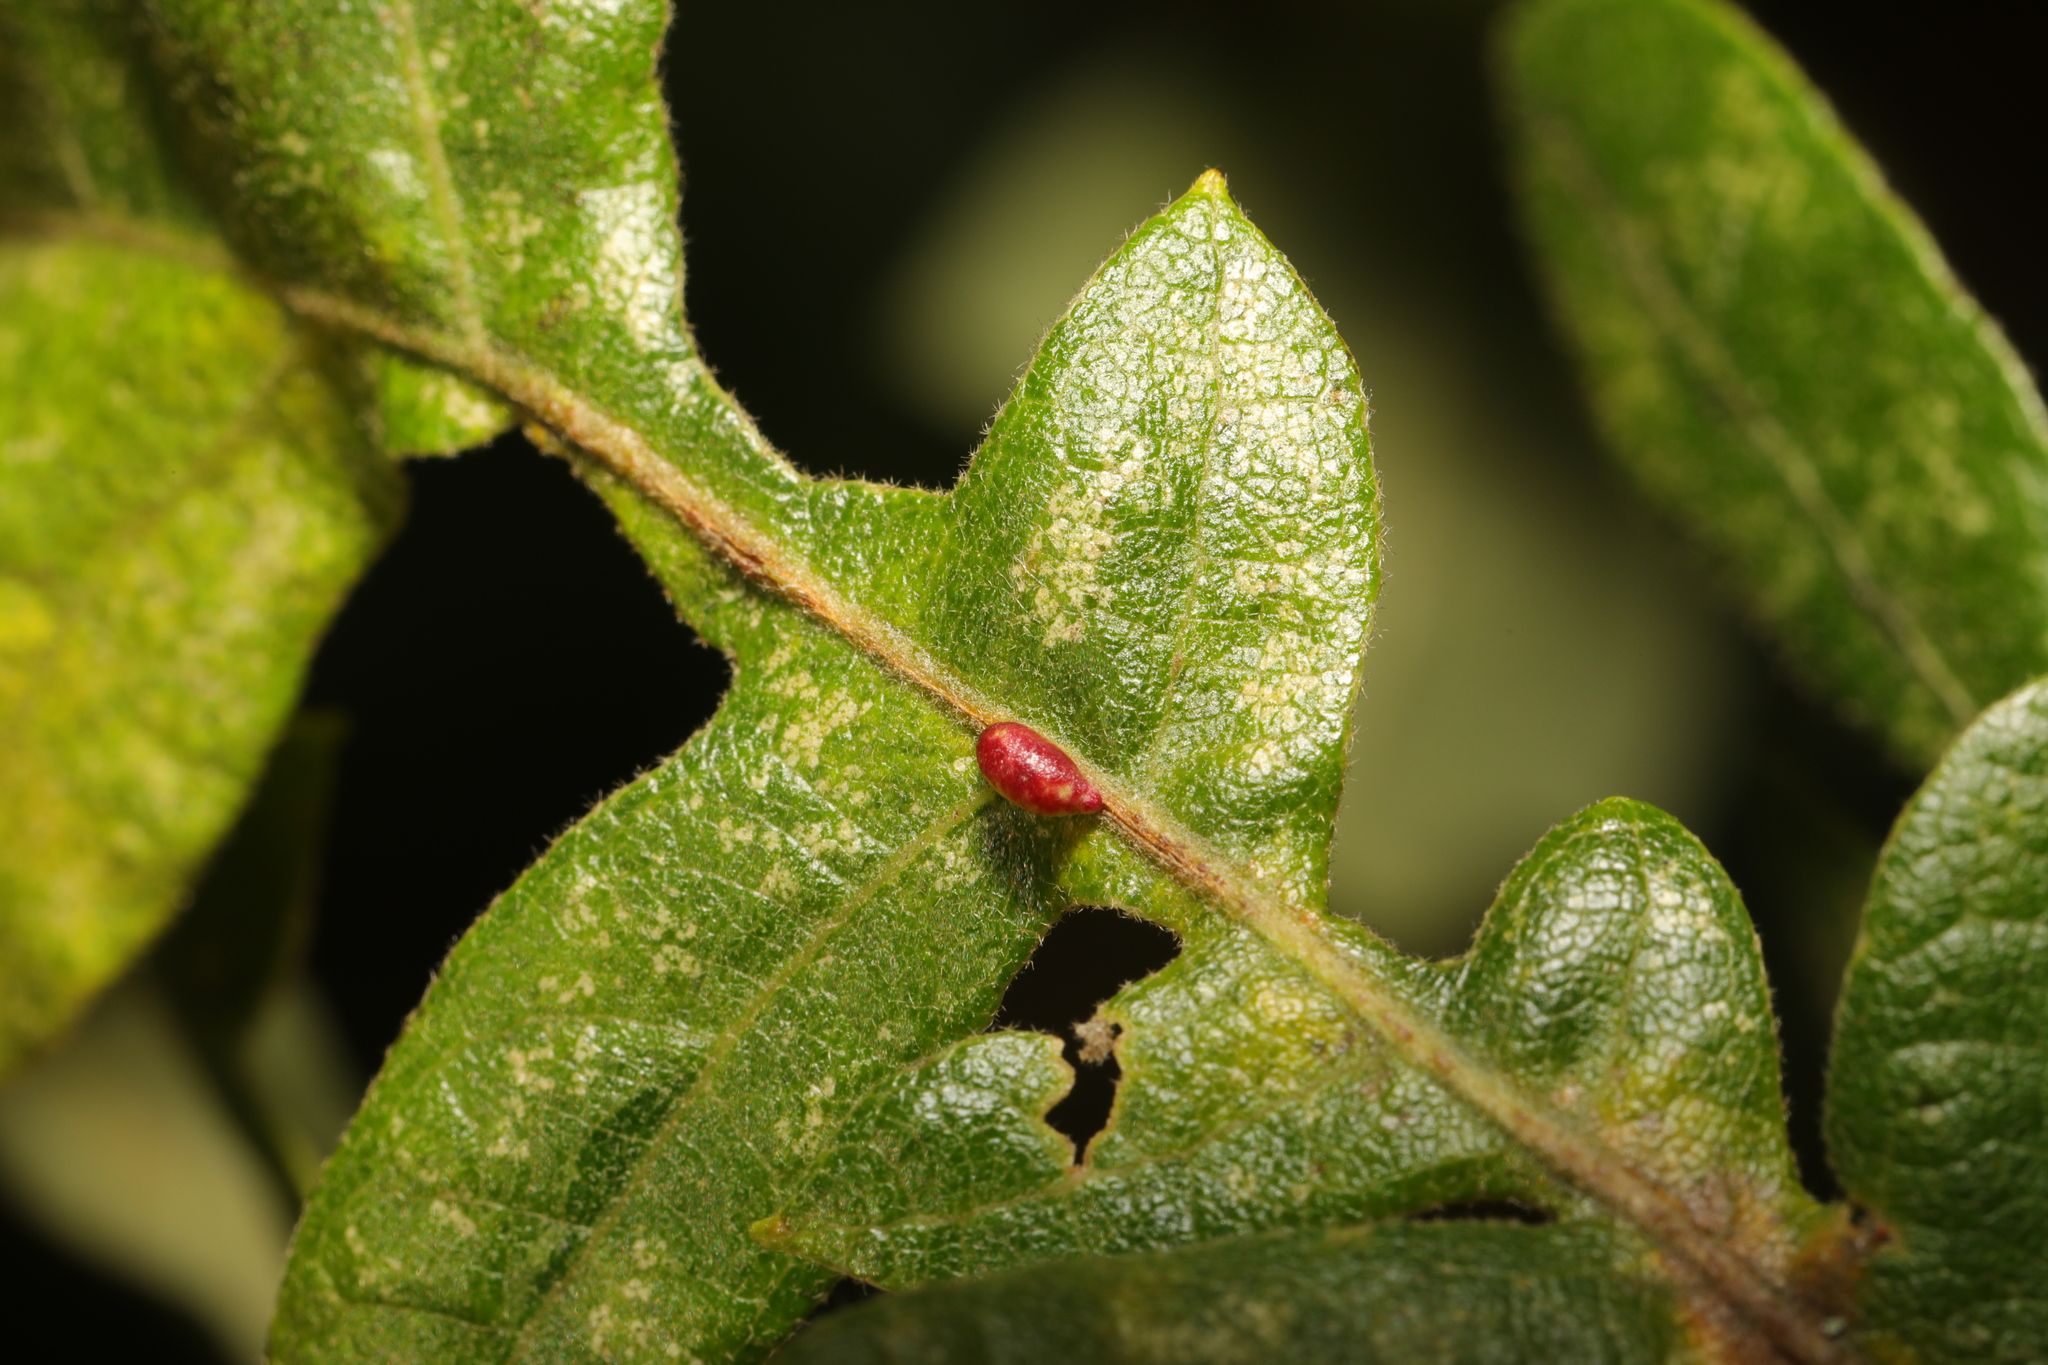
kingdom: Animalia
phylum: Arthropoda
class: Insecta
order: Hymenoptera
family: Cynipidae
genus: Neuroterus
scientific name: Neuroterus saliens
